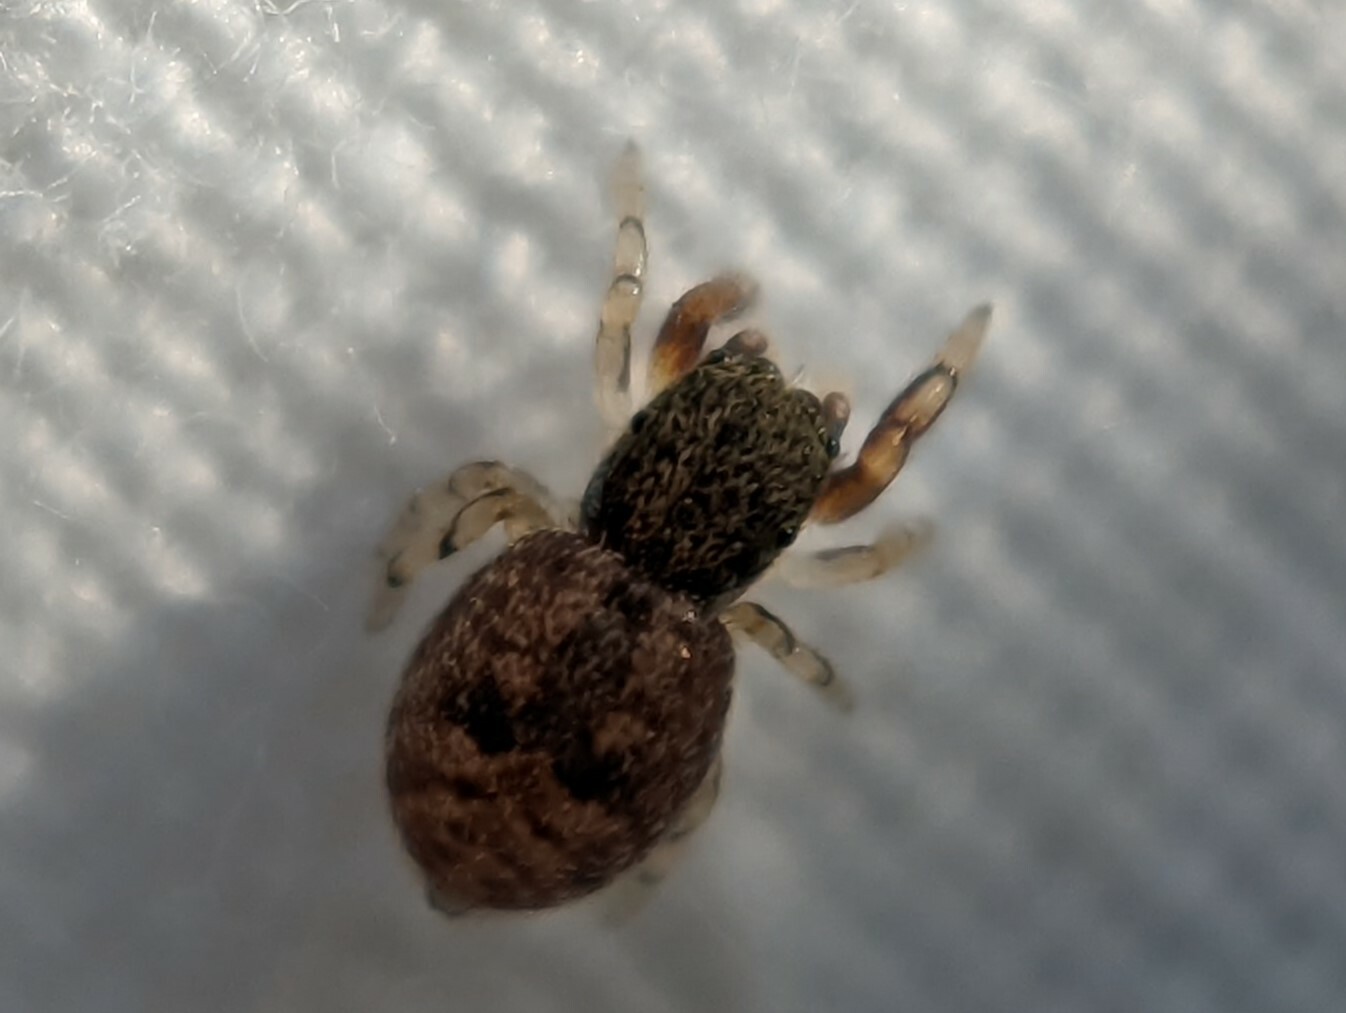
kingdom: Animalia
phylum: Arthropoda
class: Arachnida
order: Araneae
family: Salticidae
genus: Ballus
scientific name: Ballus chalybeius
